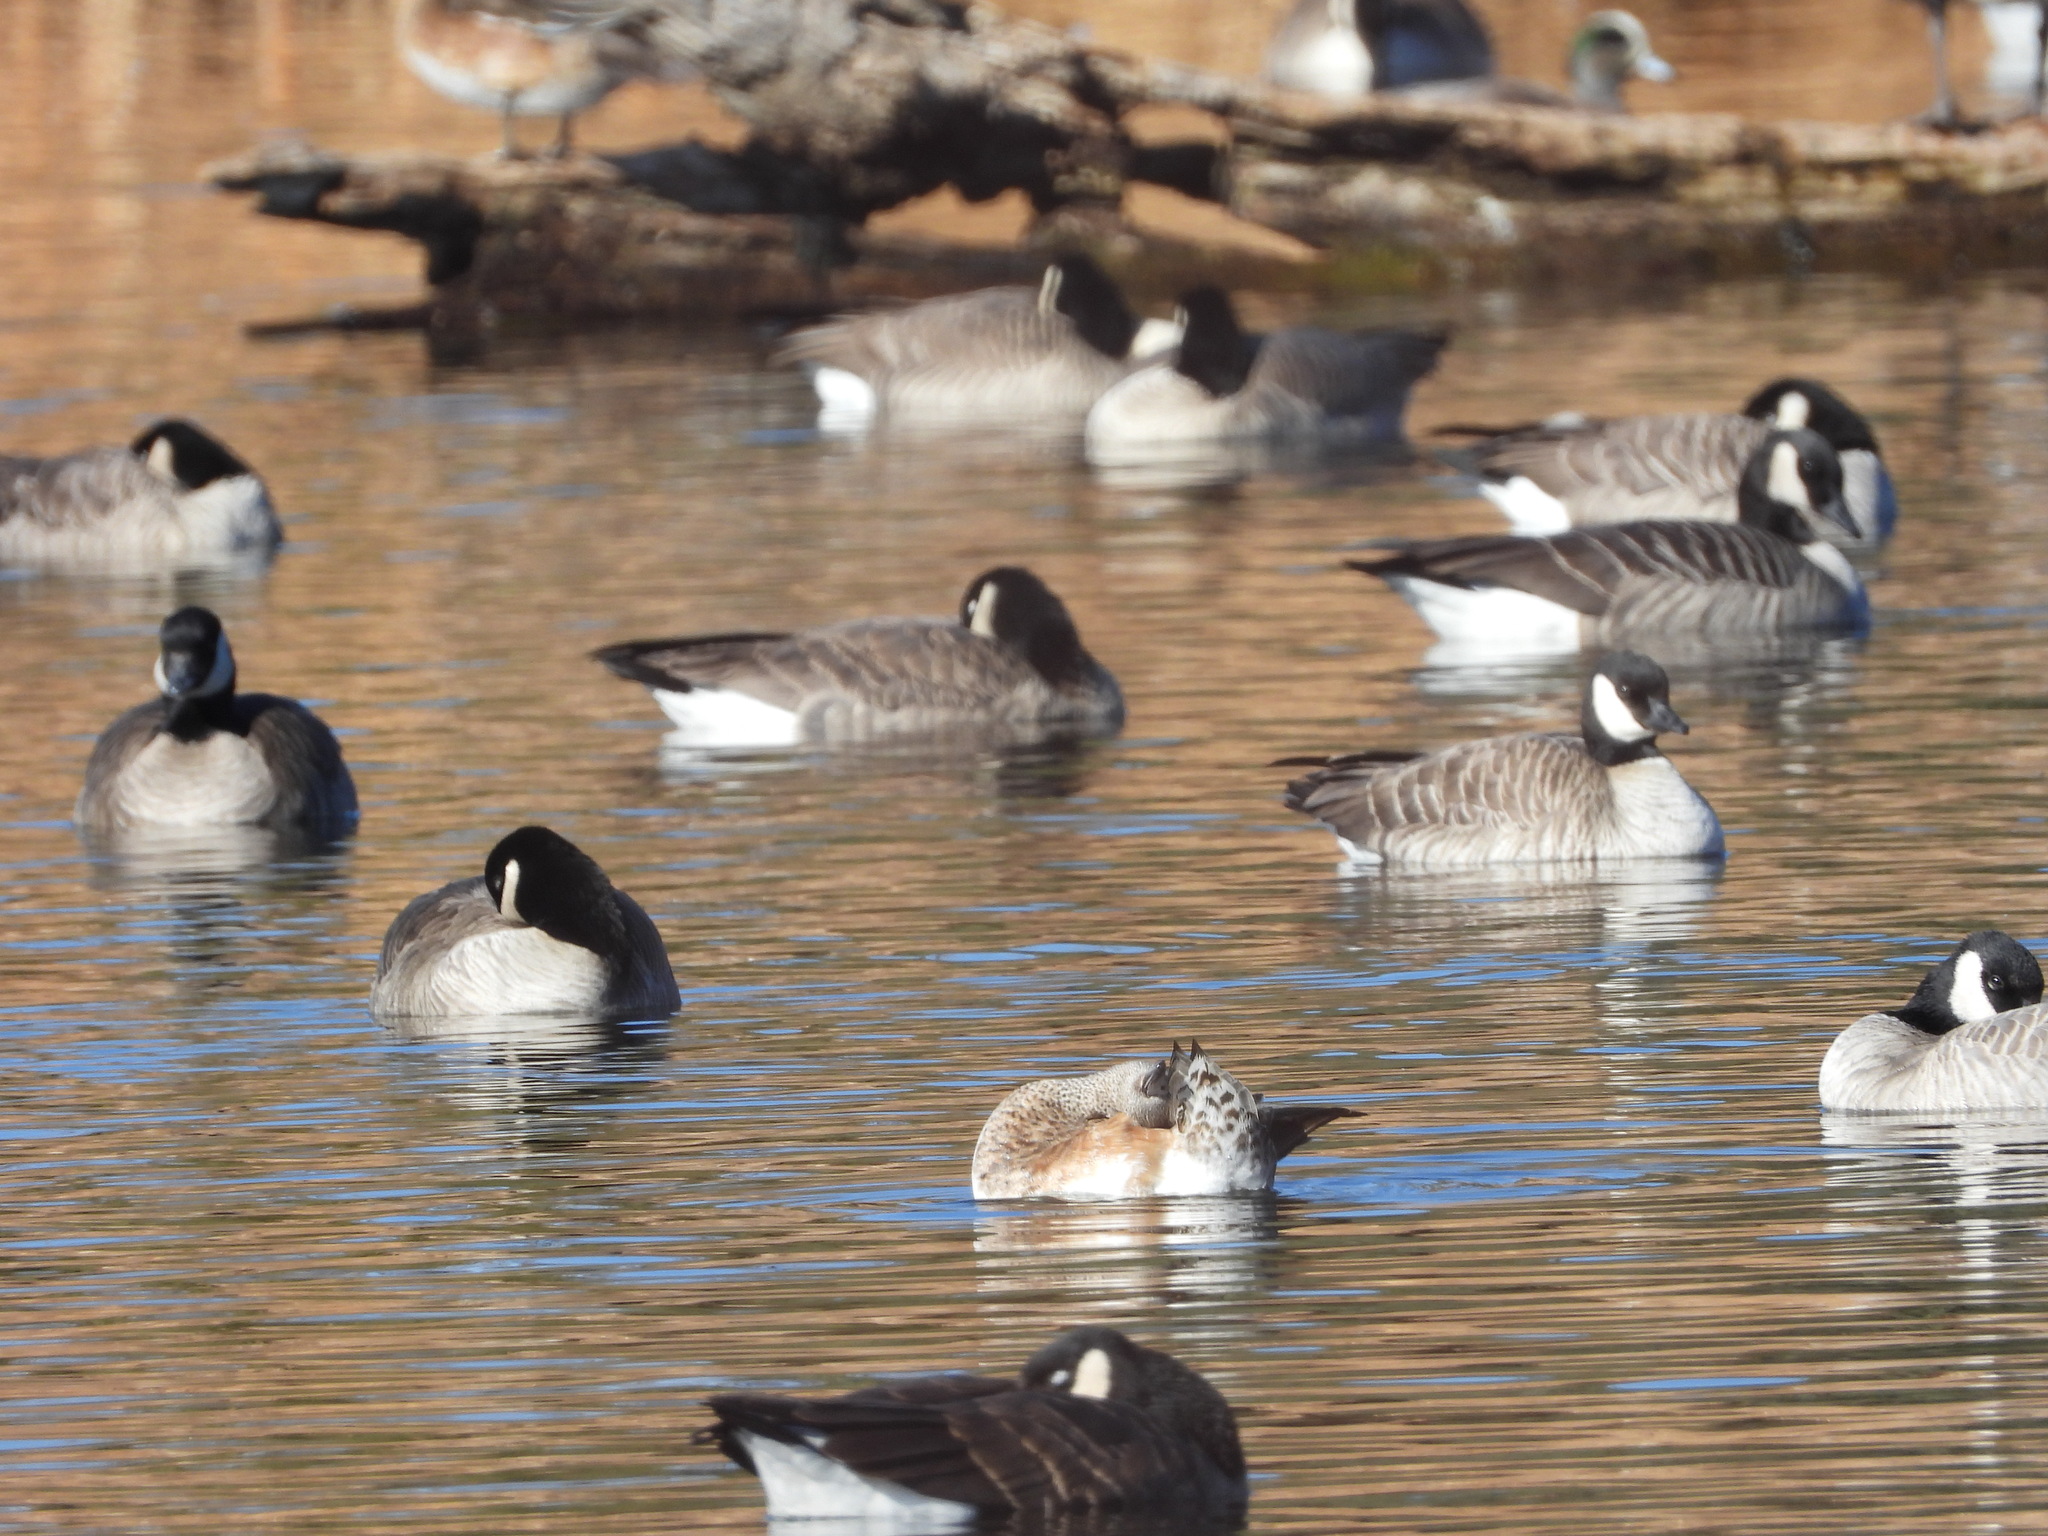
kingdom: Animalia
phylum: Chordata
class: Aves
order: Anseriformes
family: Anatidae
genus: Mareca
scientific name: Mareca americana
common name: American wigeon
